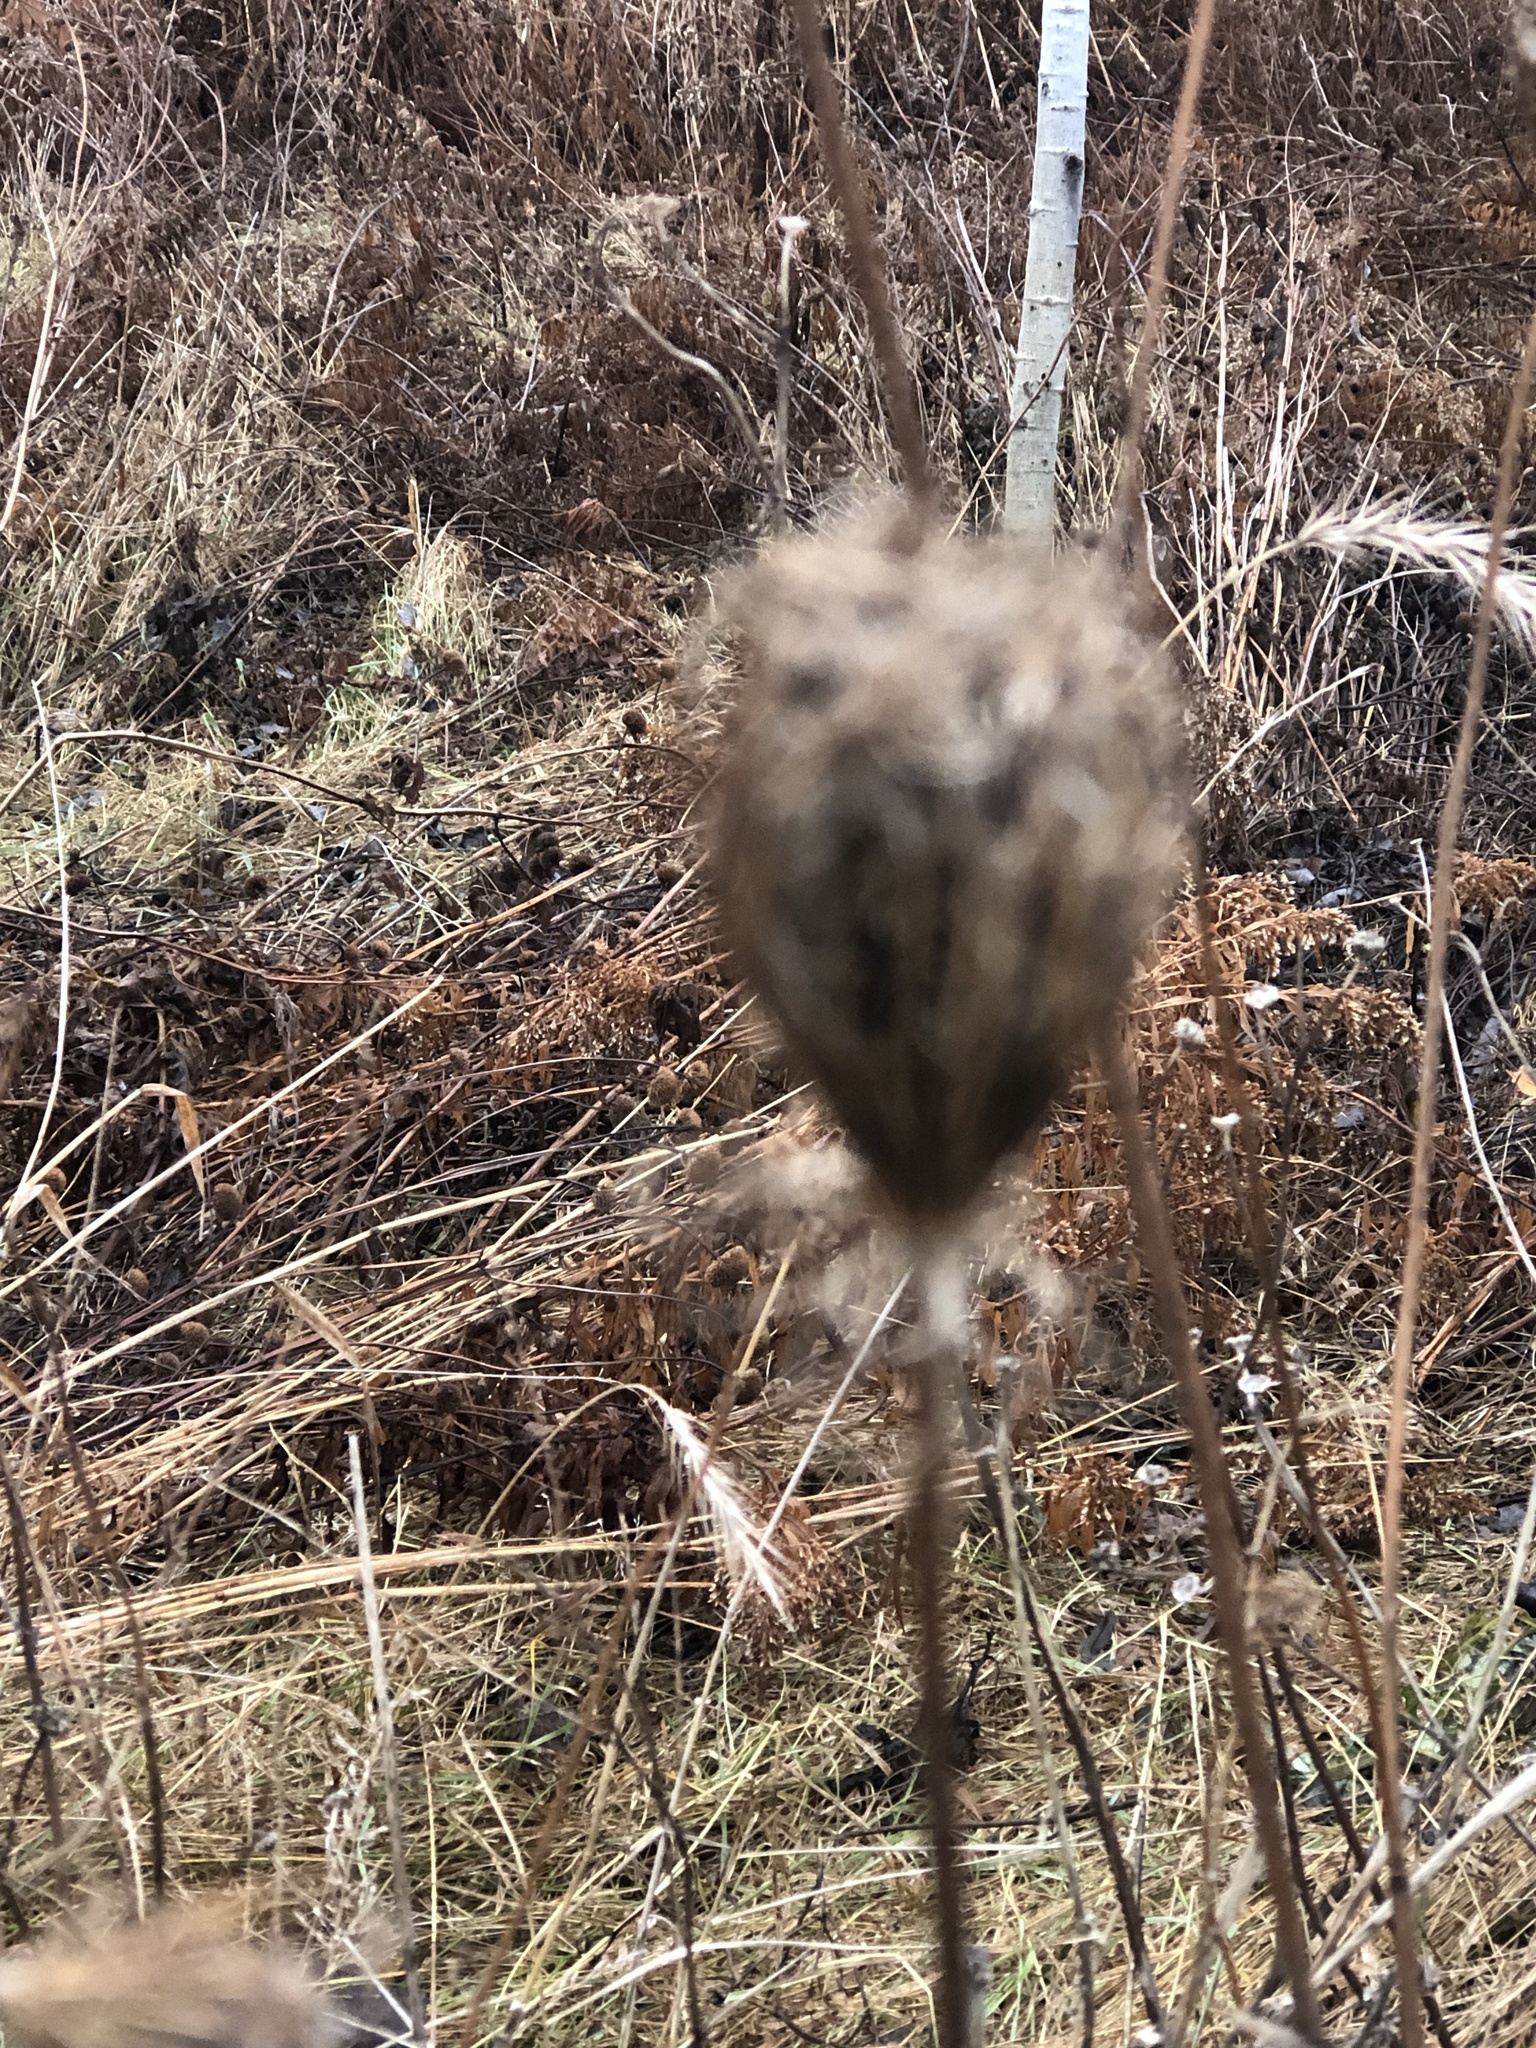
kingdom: Plantae
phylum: Tracheophyta
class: Magnoliopsida
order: Apiales
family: Apiaceae
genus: Daucus
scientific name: Daucus carota
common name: Wild carrot
